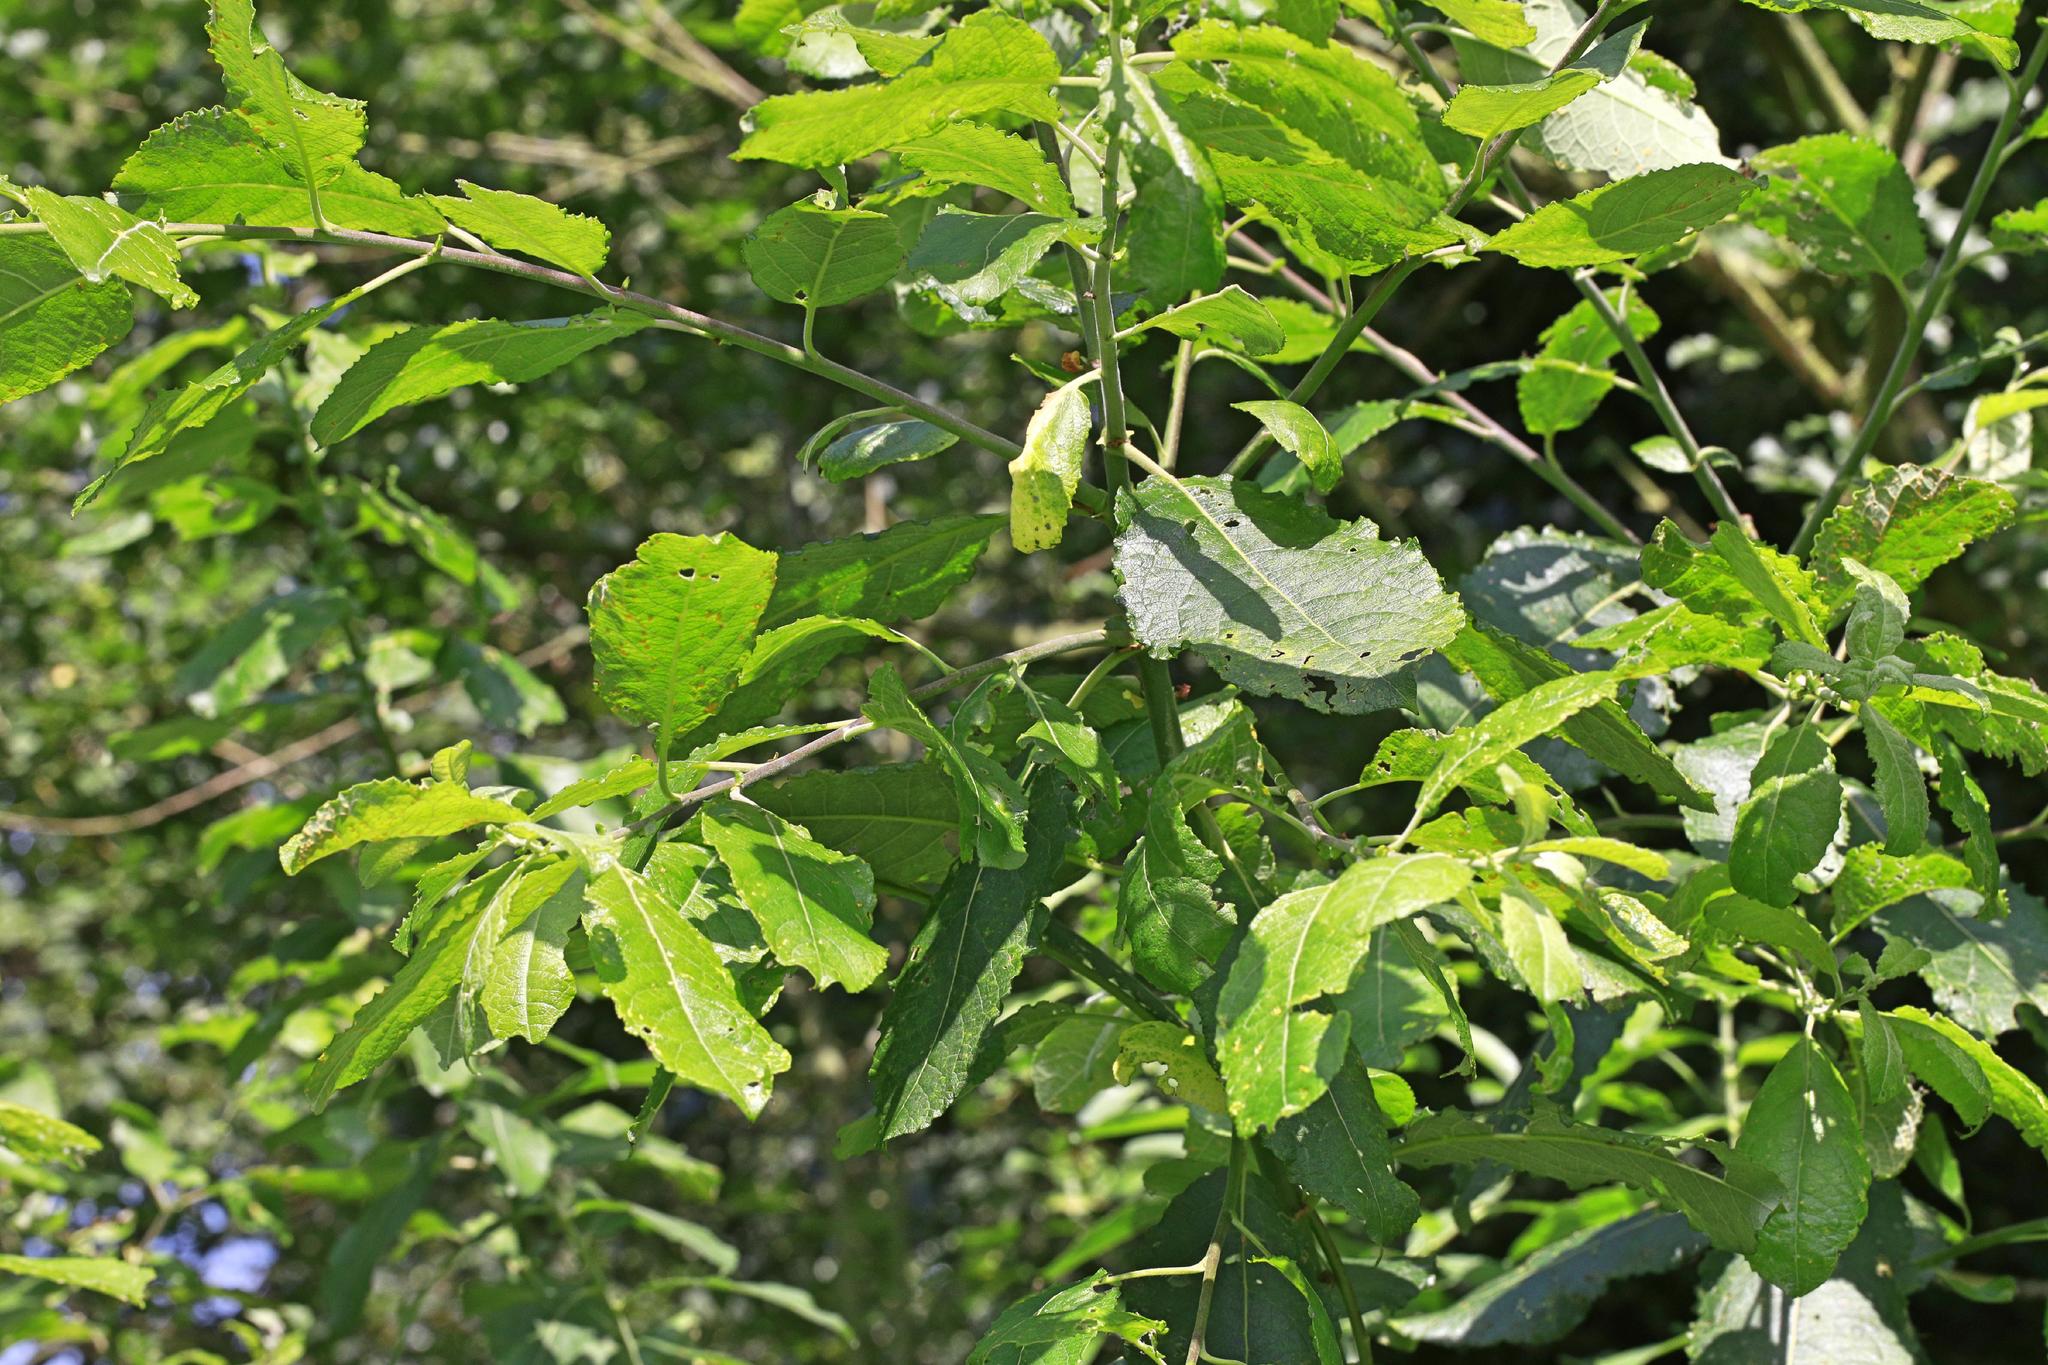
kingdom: Plantae
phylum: Tracheophyta
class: Magnoliopsida
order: Malpighiales
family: Salicaceae
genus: Salix
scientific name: Salix cinerea
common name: Common sallow
